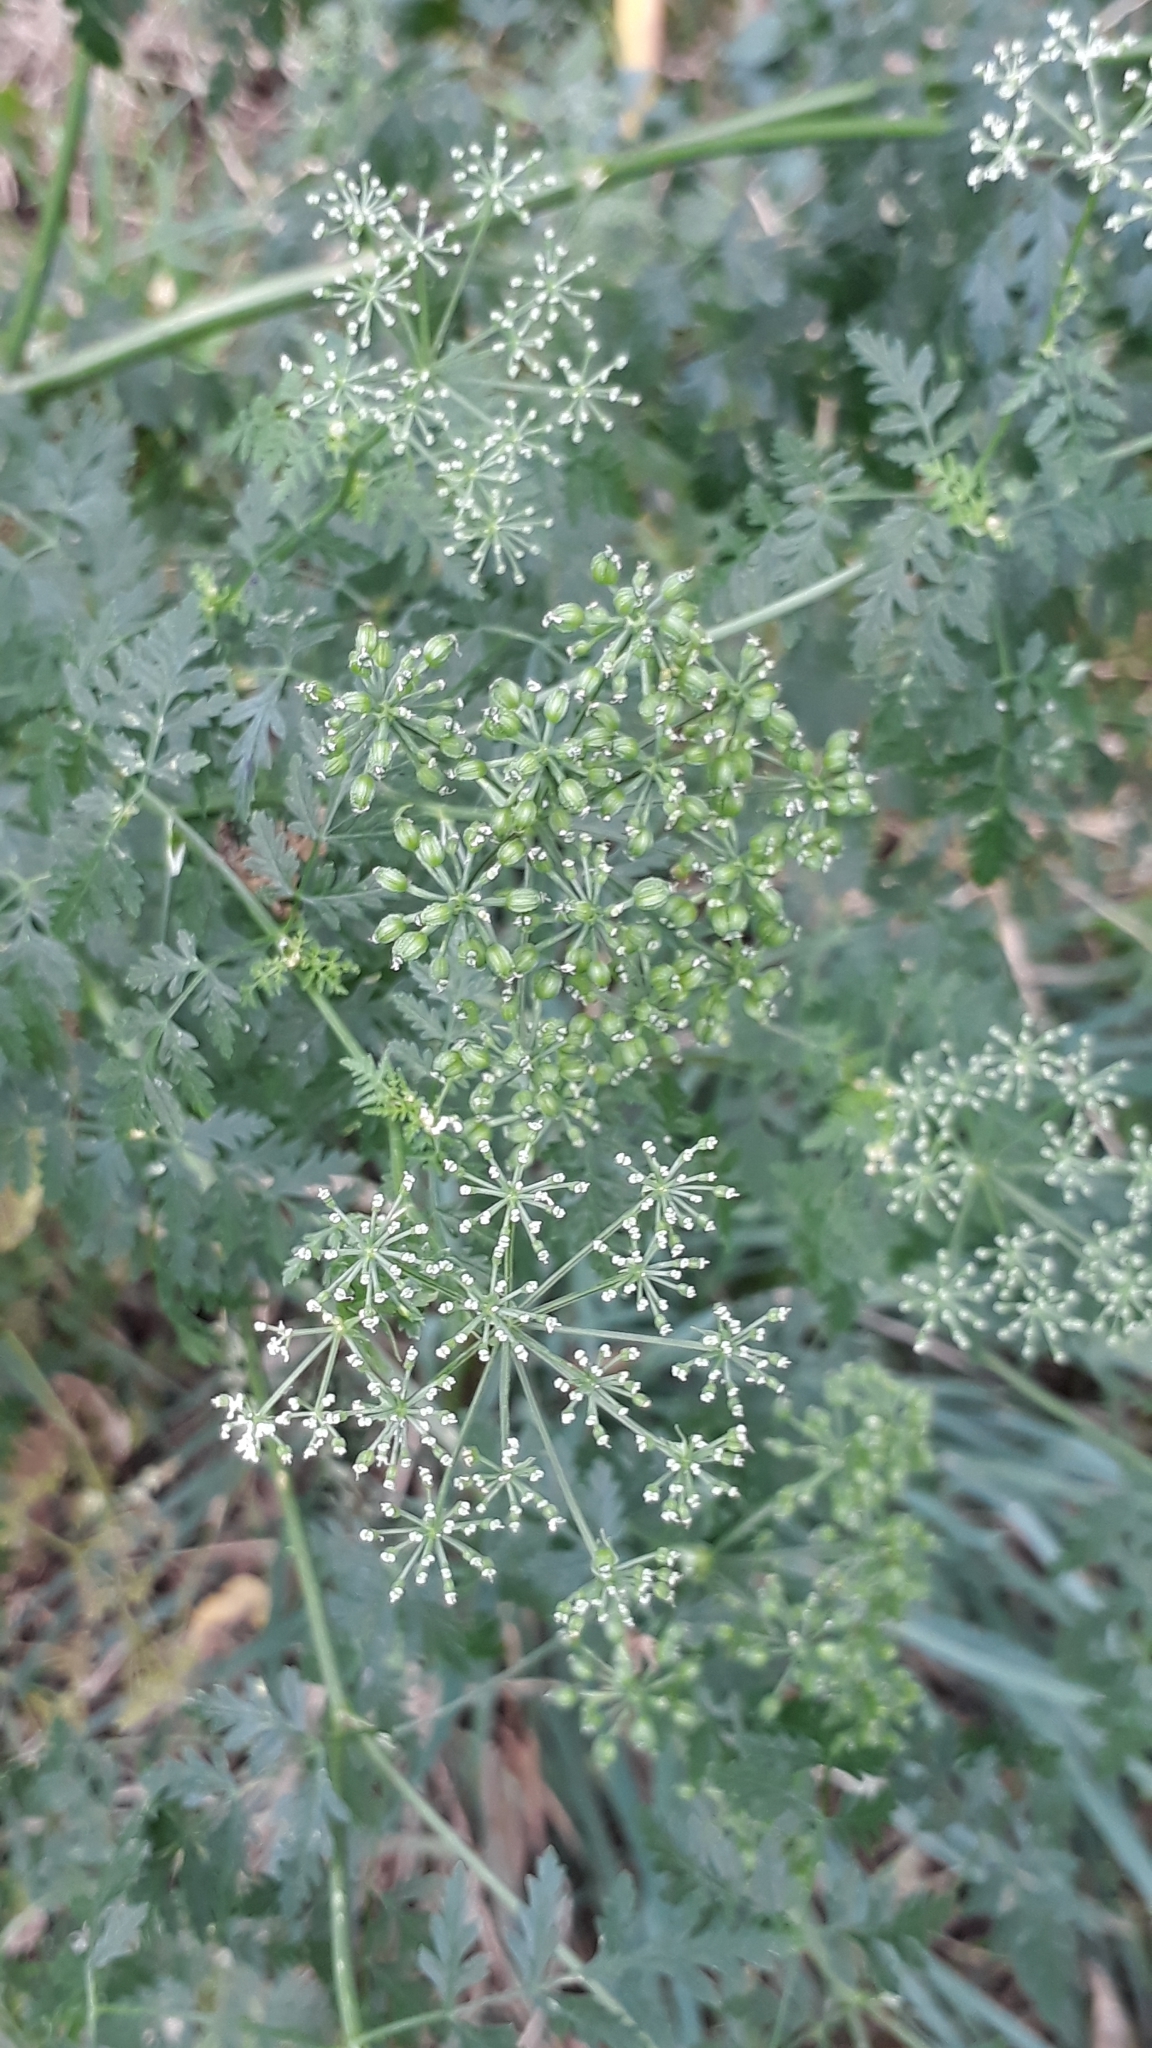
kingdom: Plantae
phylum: Tracheophyta
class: Magnoliopsida
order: Apiales
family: Apiaceae
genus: Conium
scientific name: Conium maculatum
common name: Hemlock
